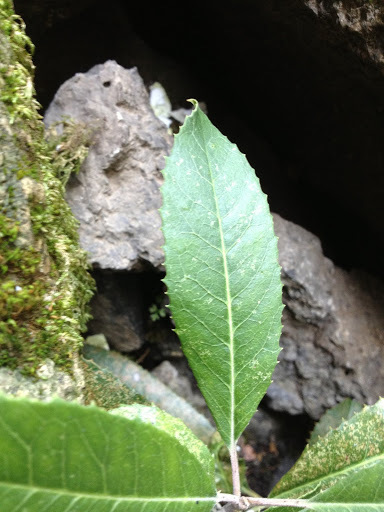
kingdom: Plantae
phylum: Tracheophyta
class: Magnoliopsida
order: Rosales
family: Rosaceae
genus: Heteromeles
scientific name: Heteromeles arbutifolia
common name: California-holly
